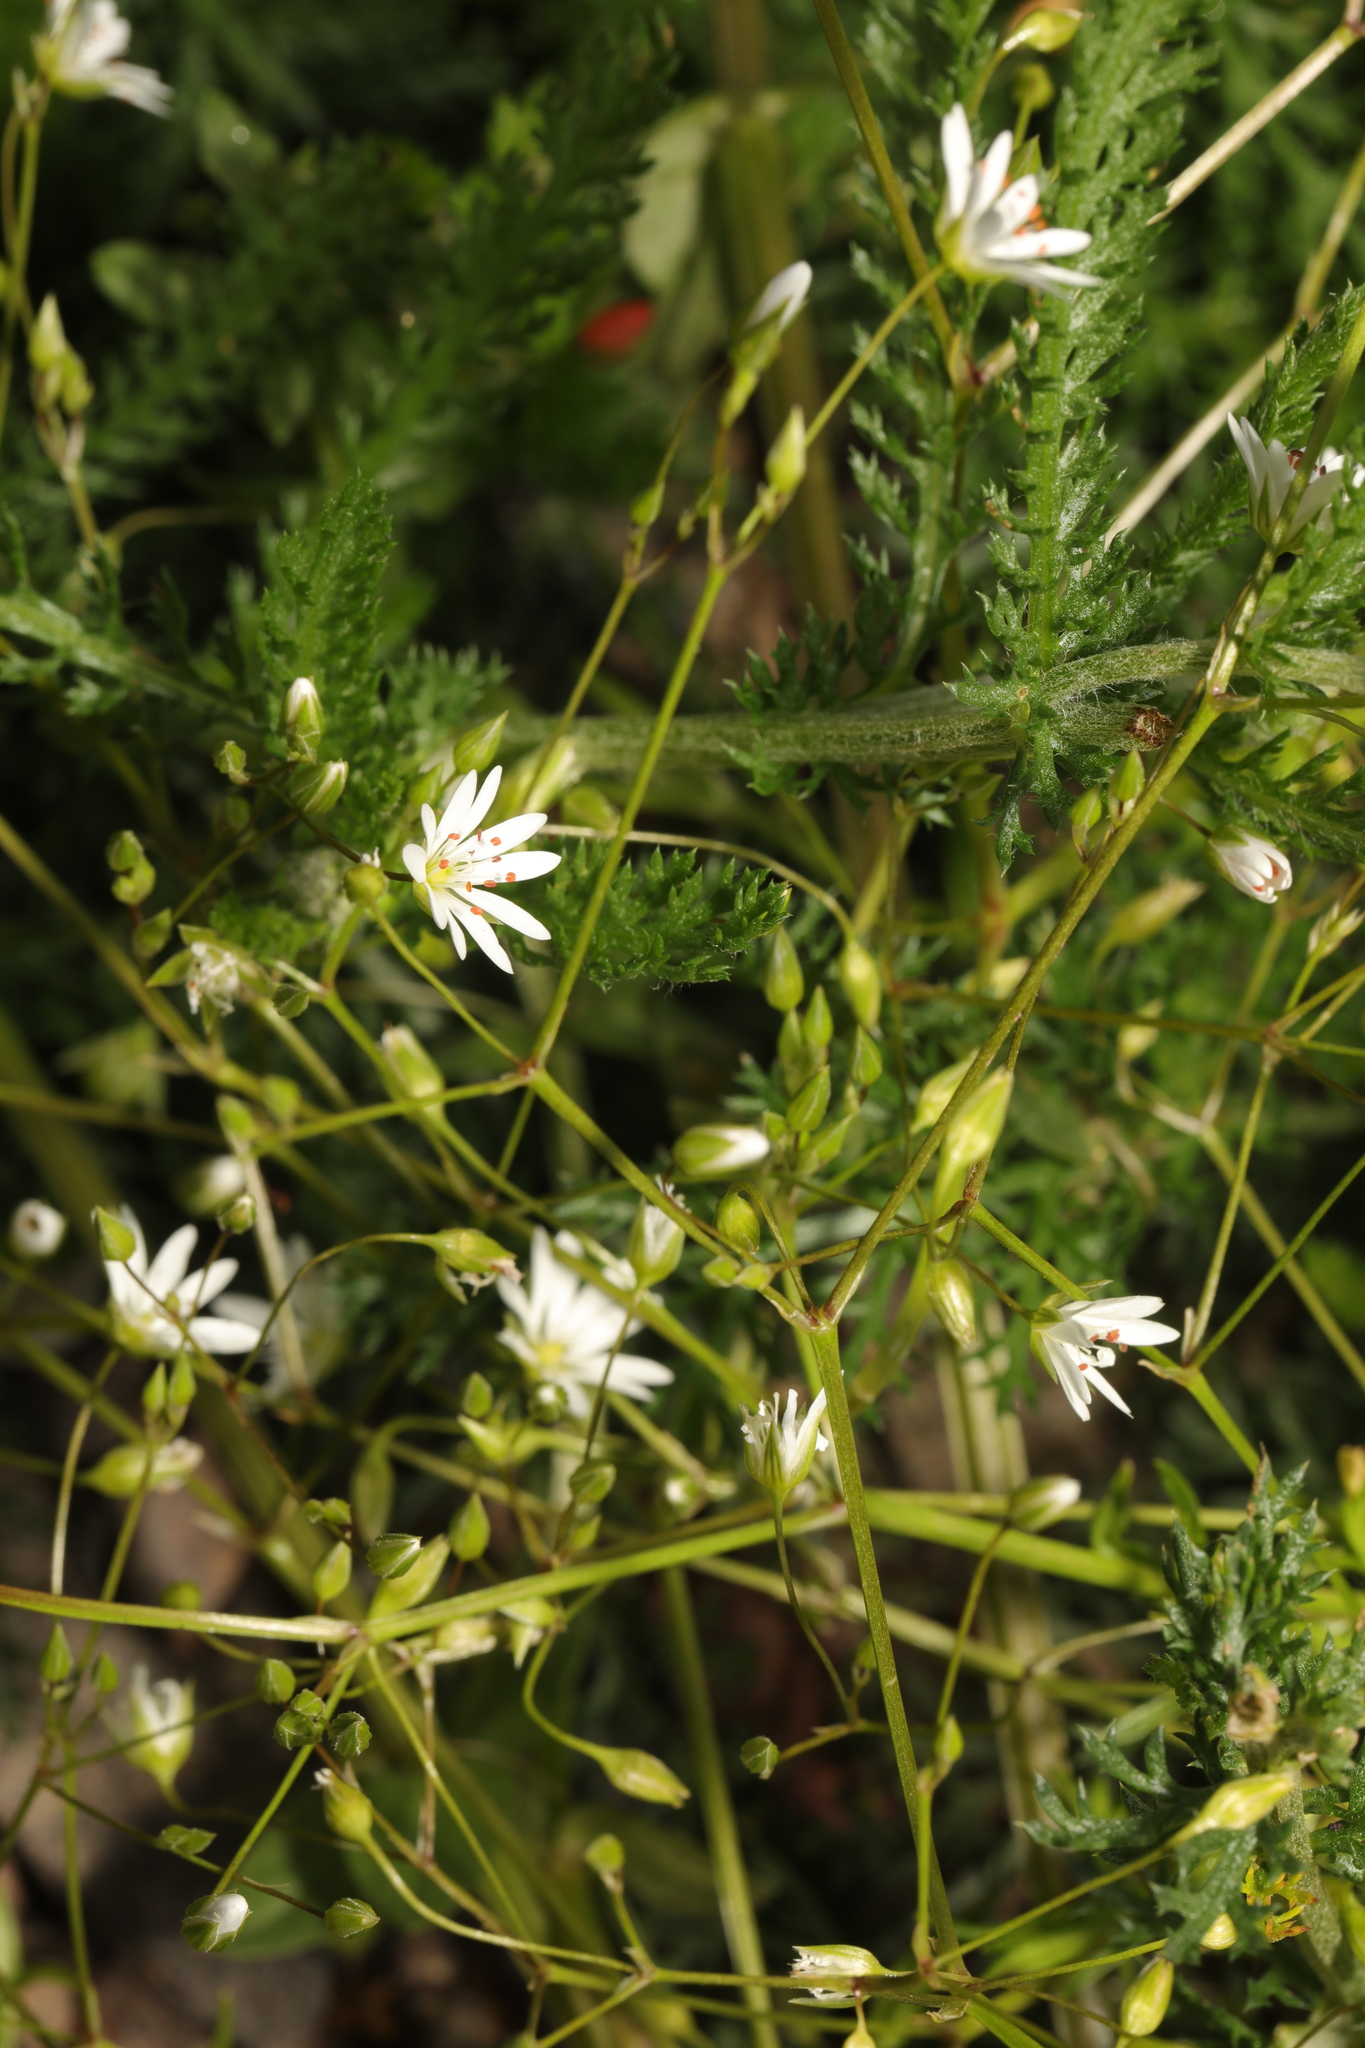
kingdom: Plantae
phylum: Tracheophyta
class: Magnoliopsida
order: Caryophyllales
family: Caryophyllaceae
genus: Stellaria
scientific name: Stellaria graminea
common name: Grass-like starwort
